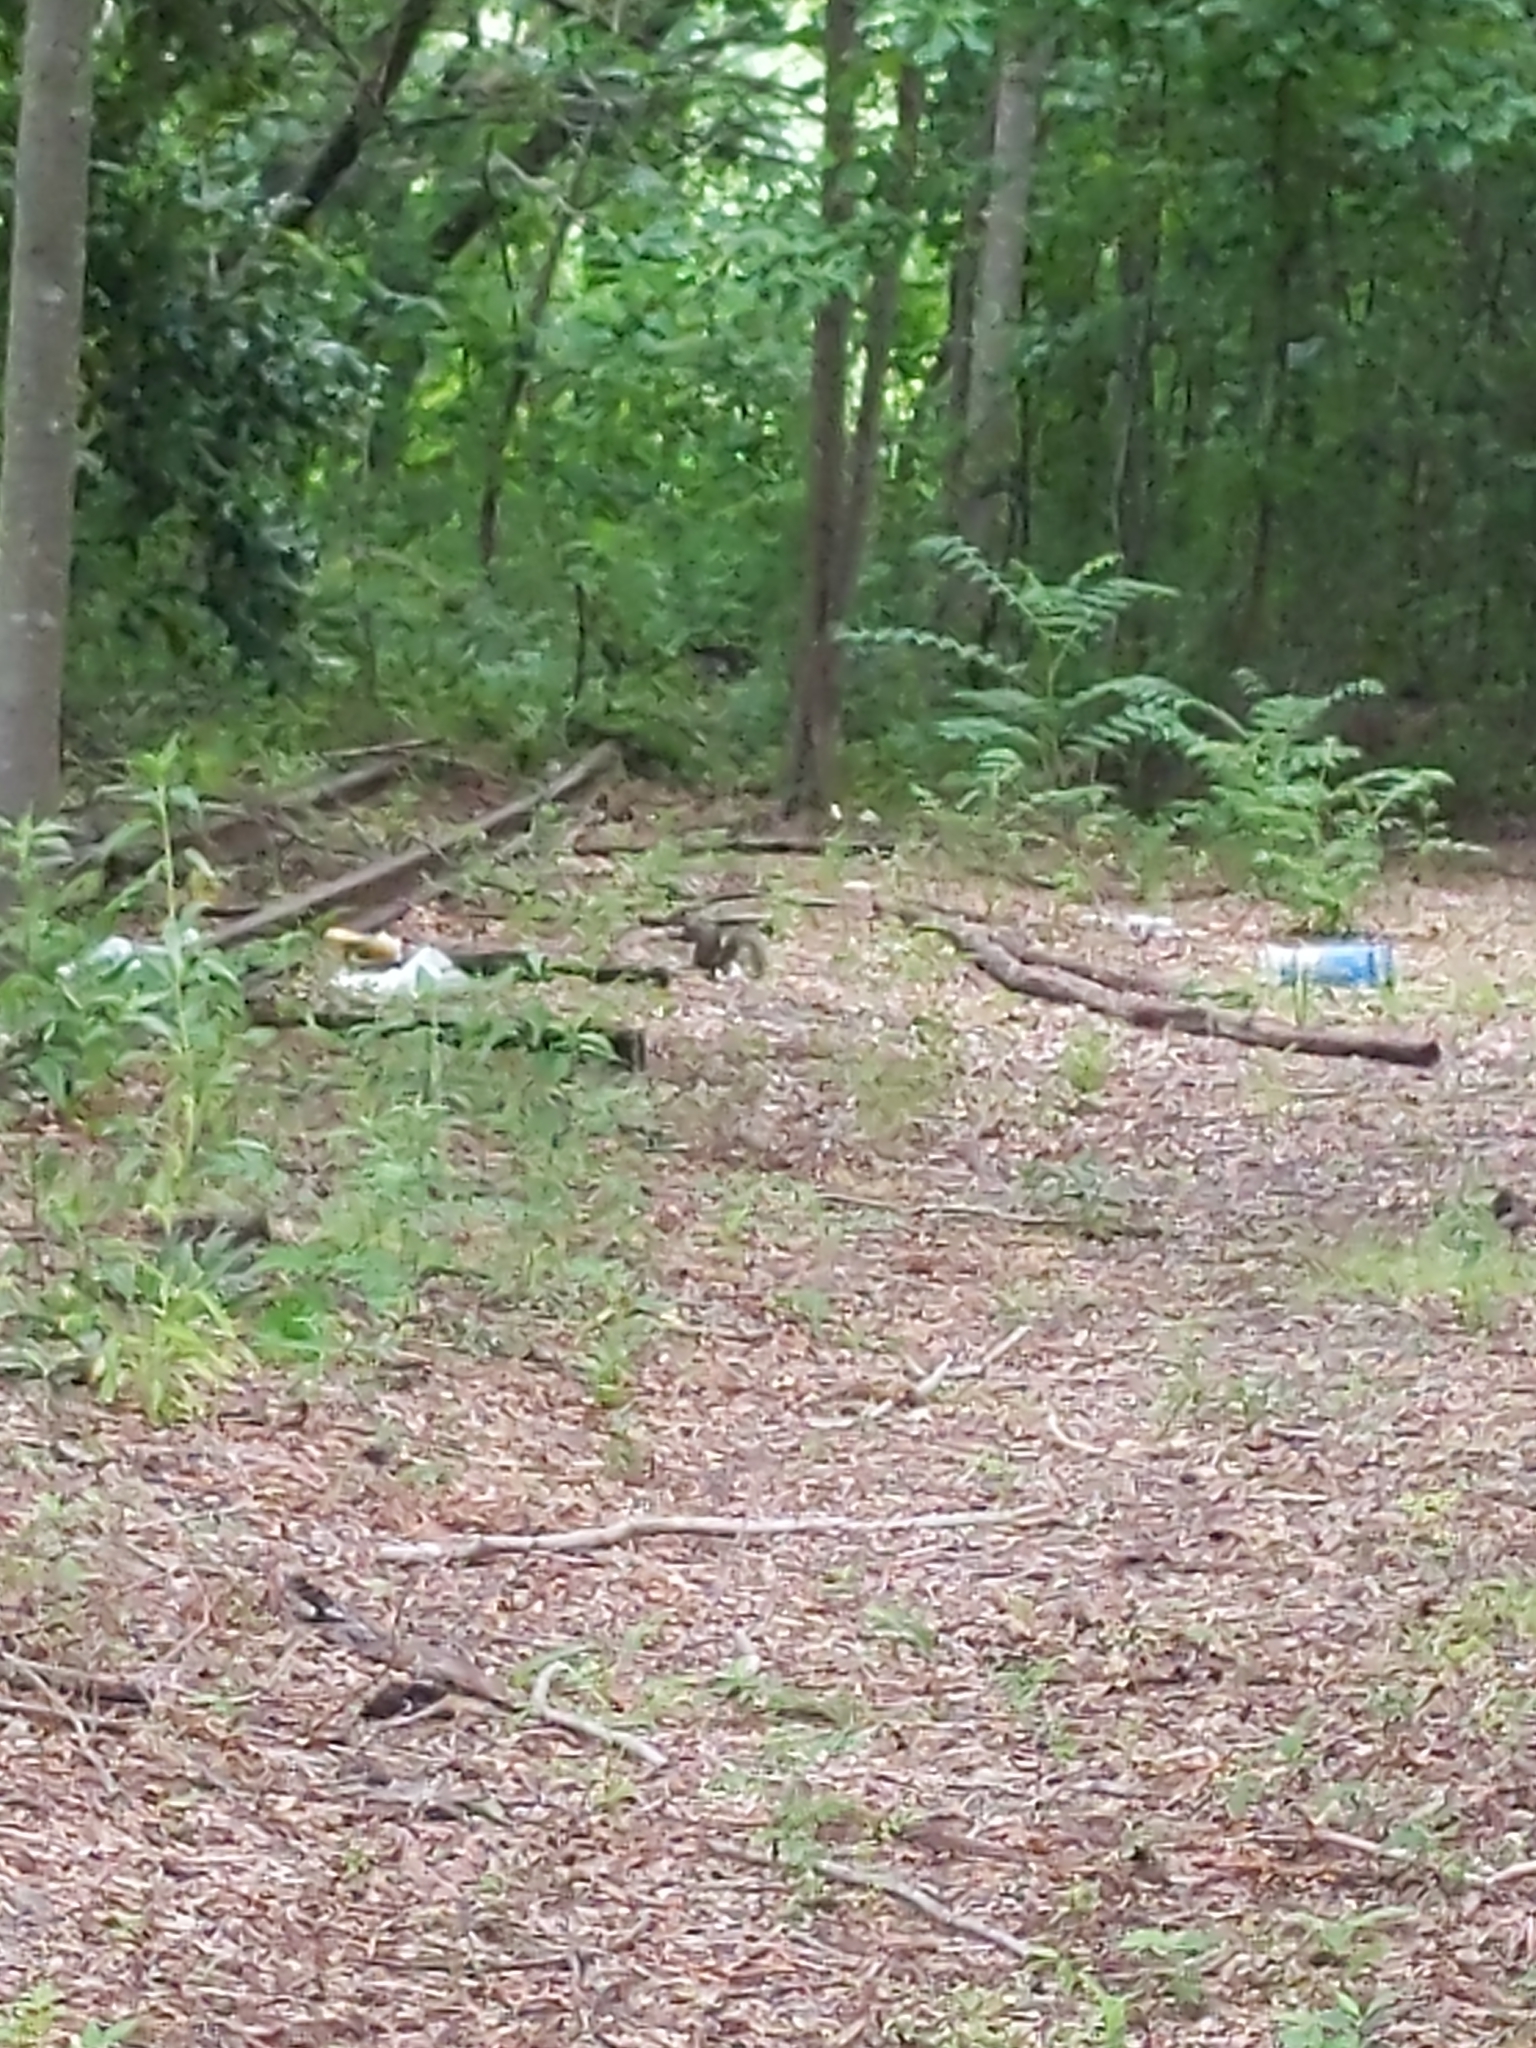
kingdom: Animalia
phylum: Chordata
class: Mammalia
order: Rodentia
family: Sciuridae
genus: Sciurus
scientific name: Sciurus carolinensis
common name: Eastern gray squirrel
